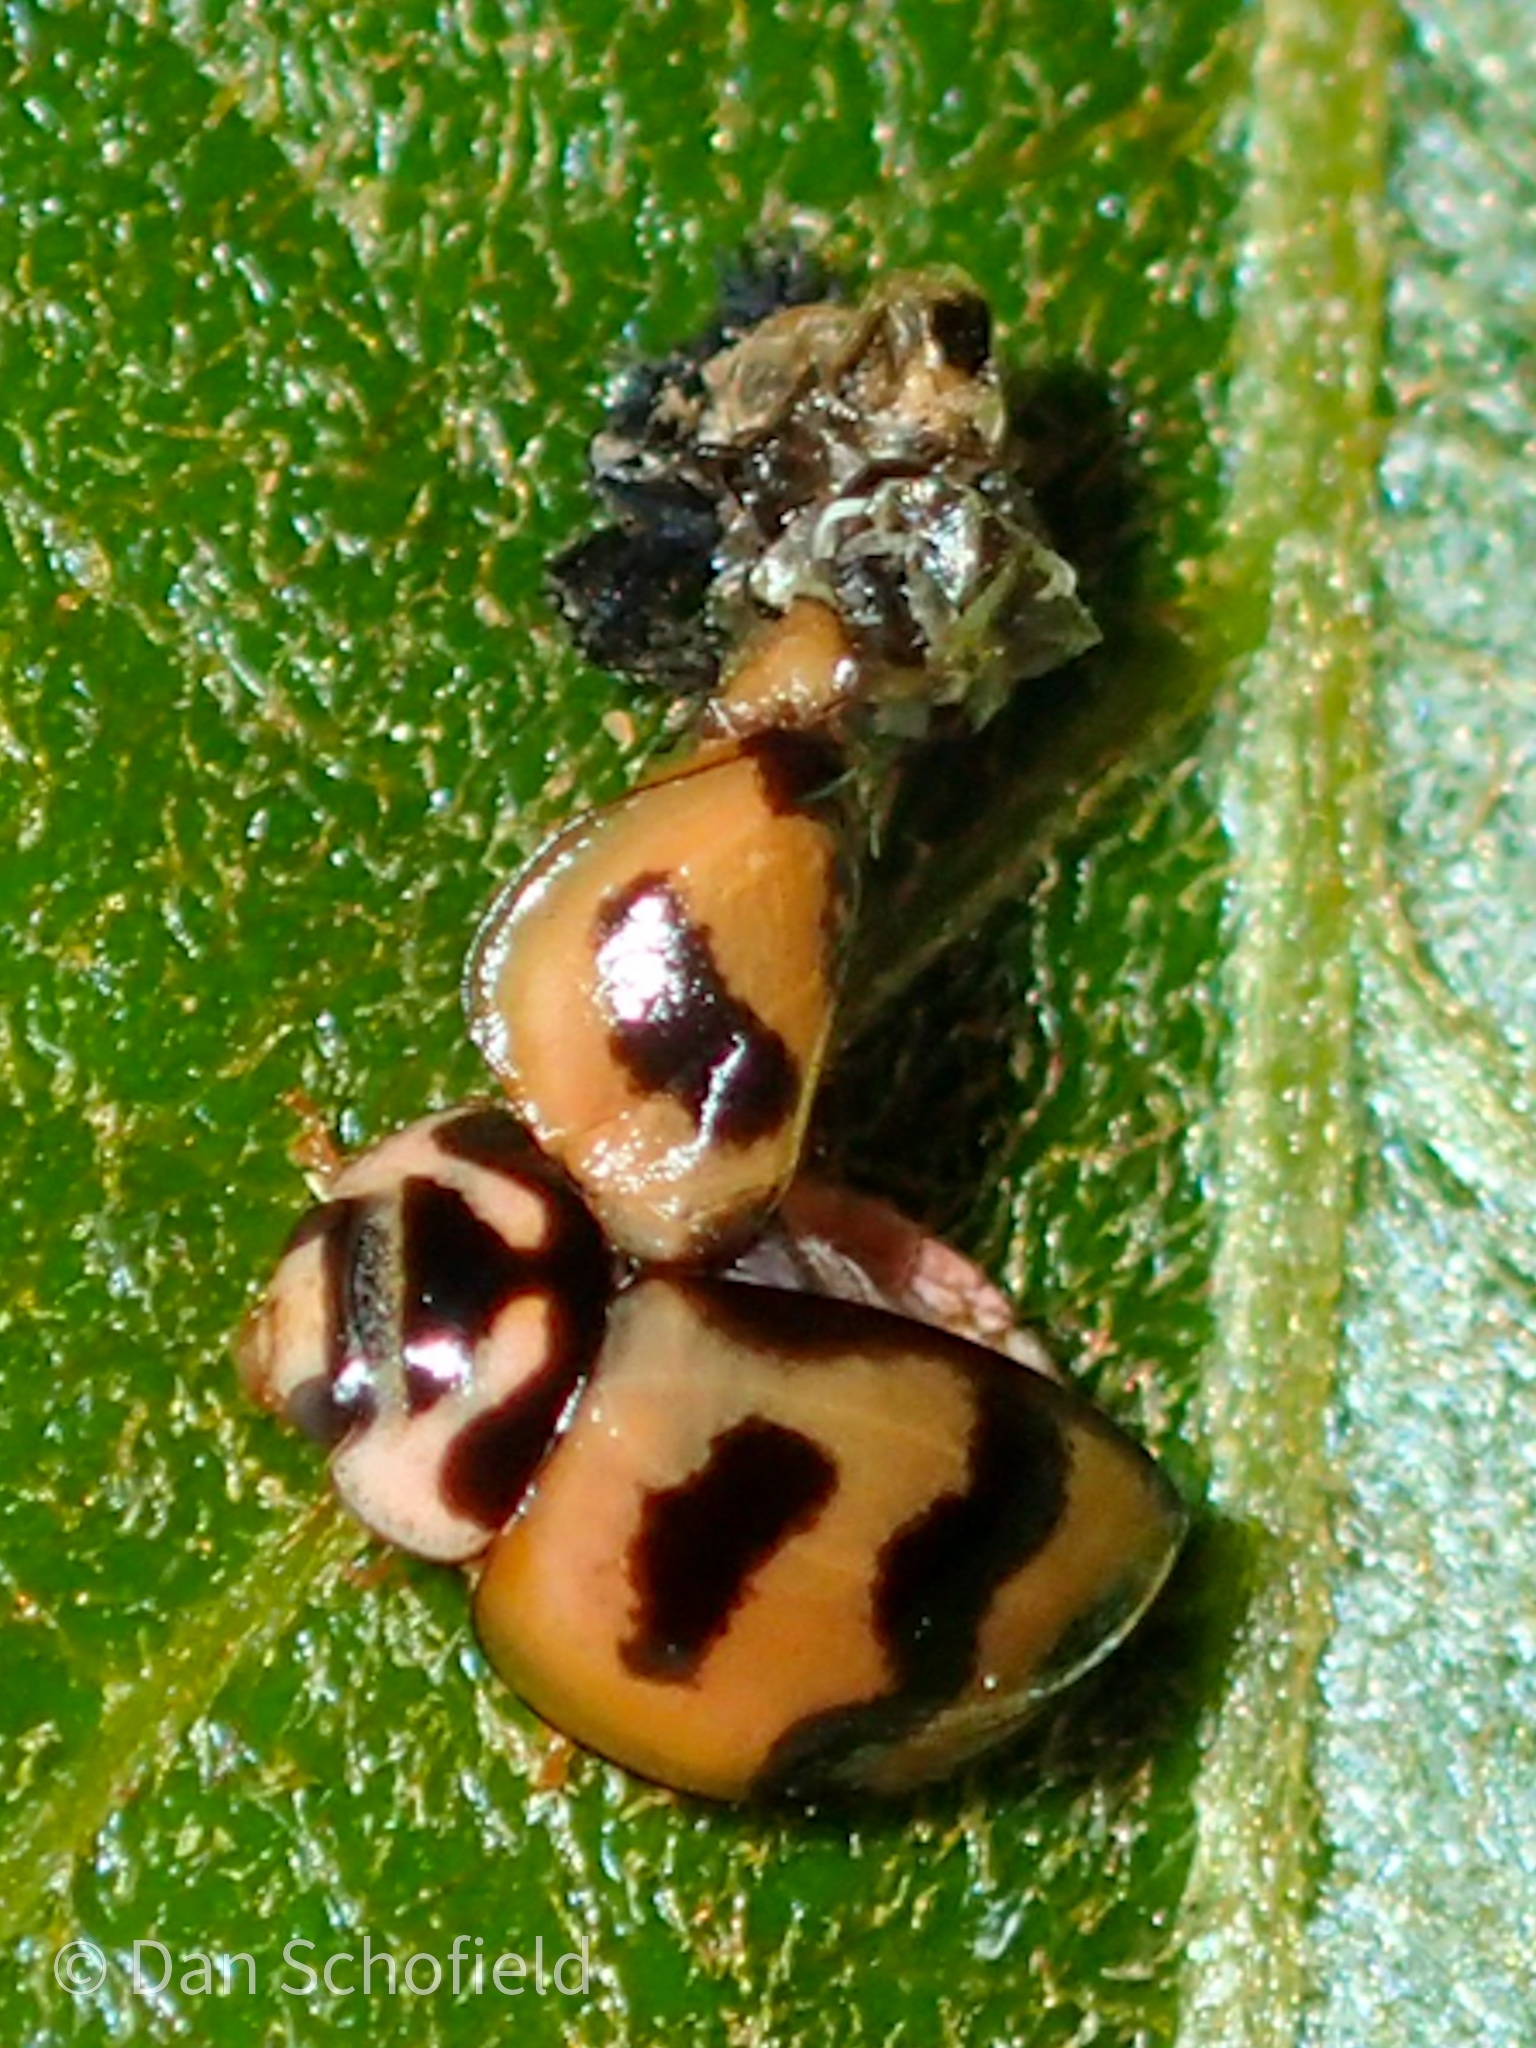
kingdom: Animalia
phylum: Arthropoda
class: Insecta
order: Coleoptera
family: Coccinellidae
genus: Cheilomenes
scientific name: Cheilomenes sexmaculata
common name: Ladybird beetle
